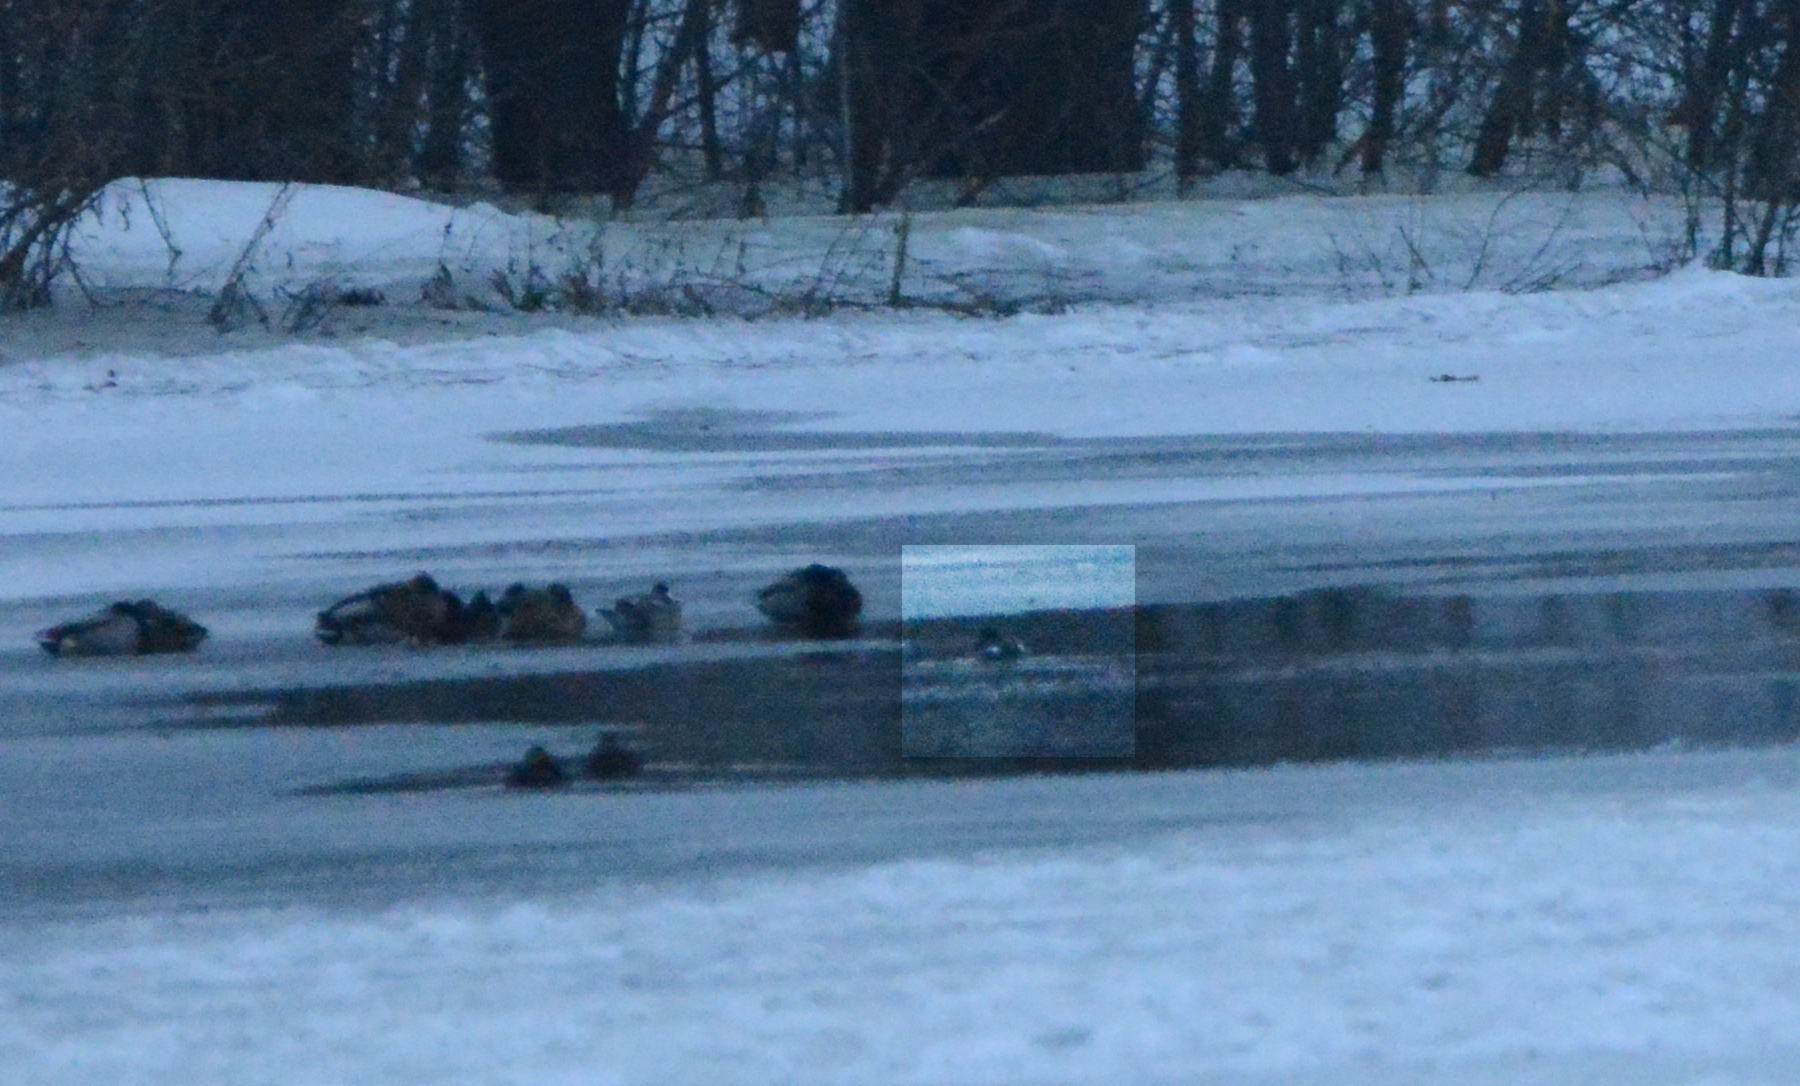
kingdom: Animalia
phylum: Chordata
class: Aves
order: Anseriformes
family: Anatidae
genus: Bucephala
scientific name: Bucephala clangula
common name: Common goldeneye
